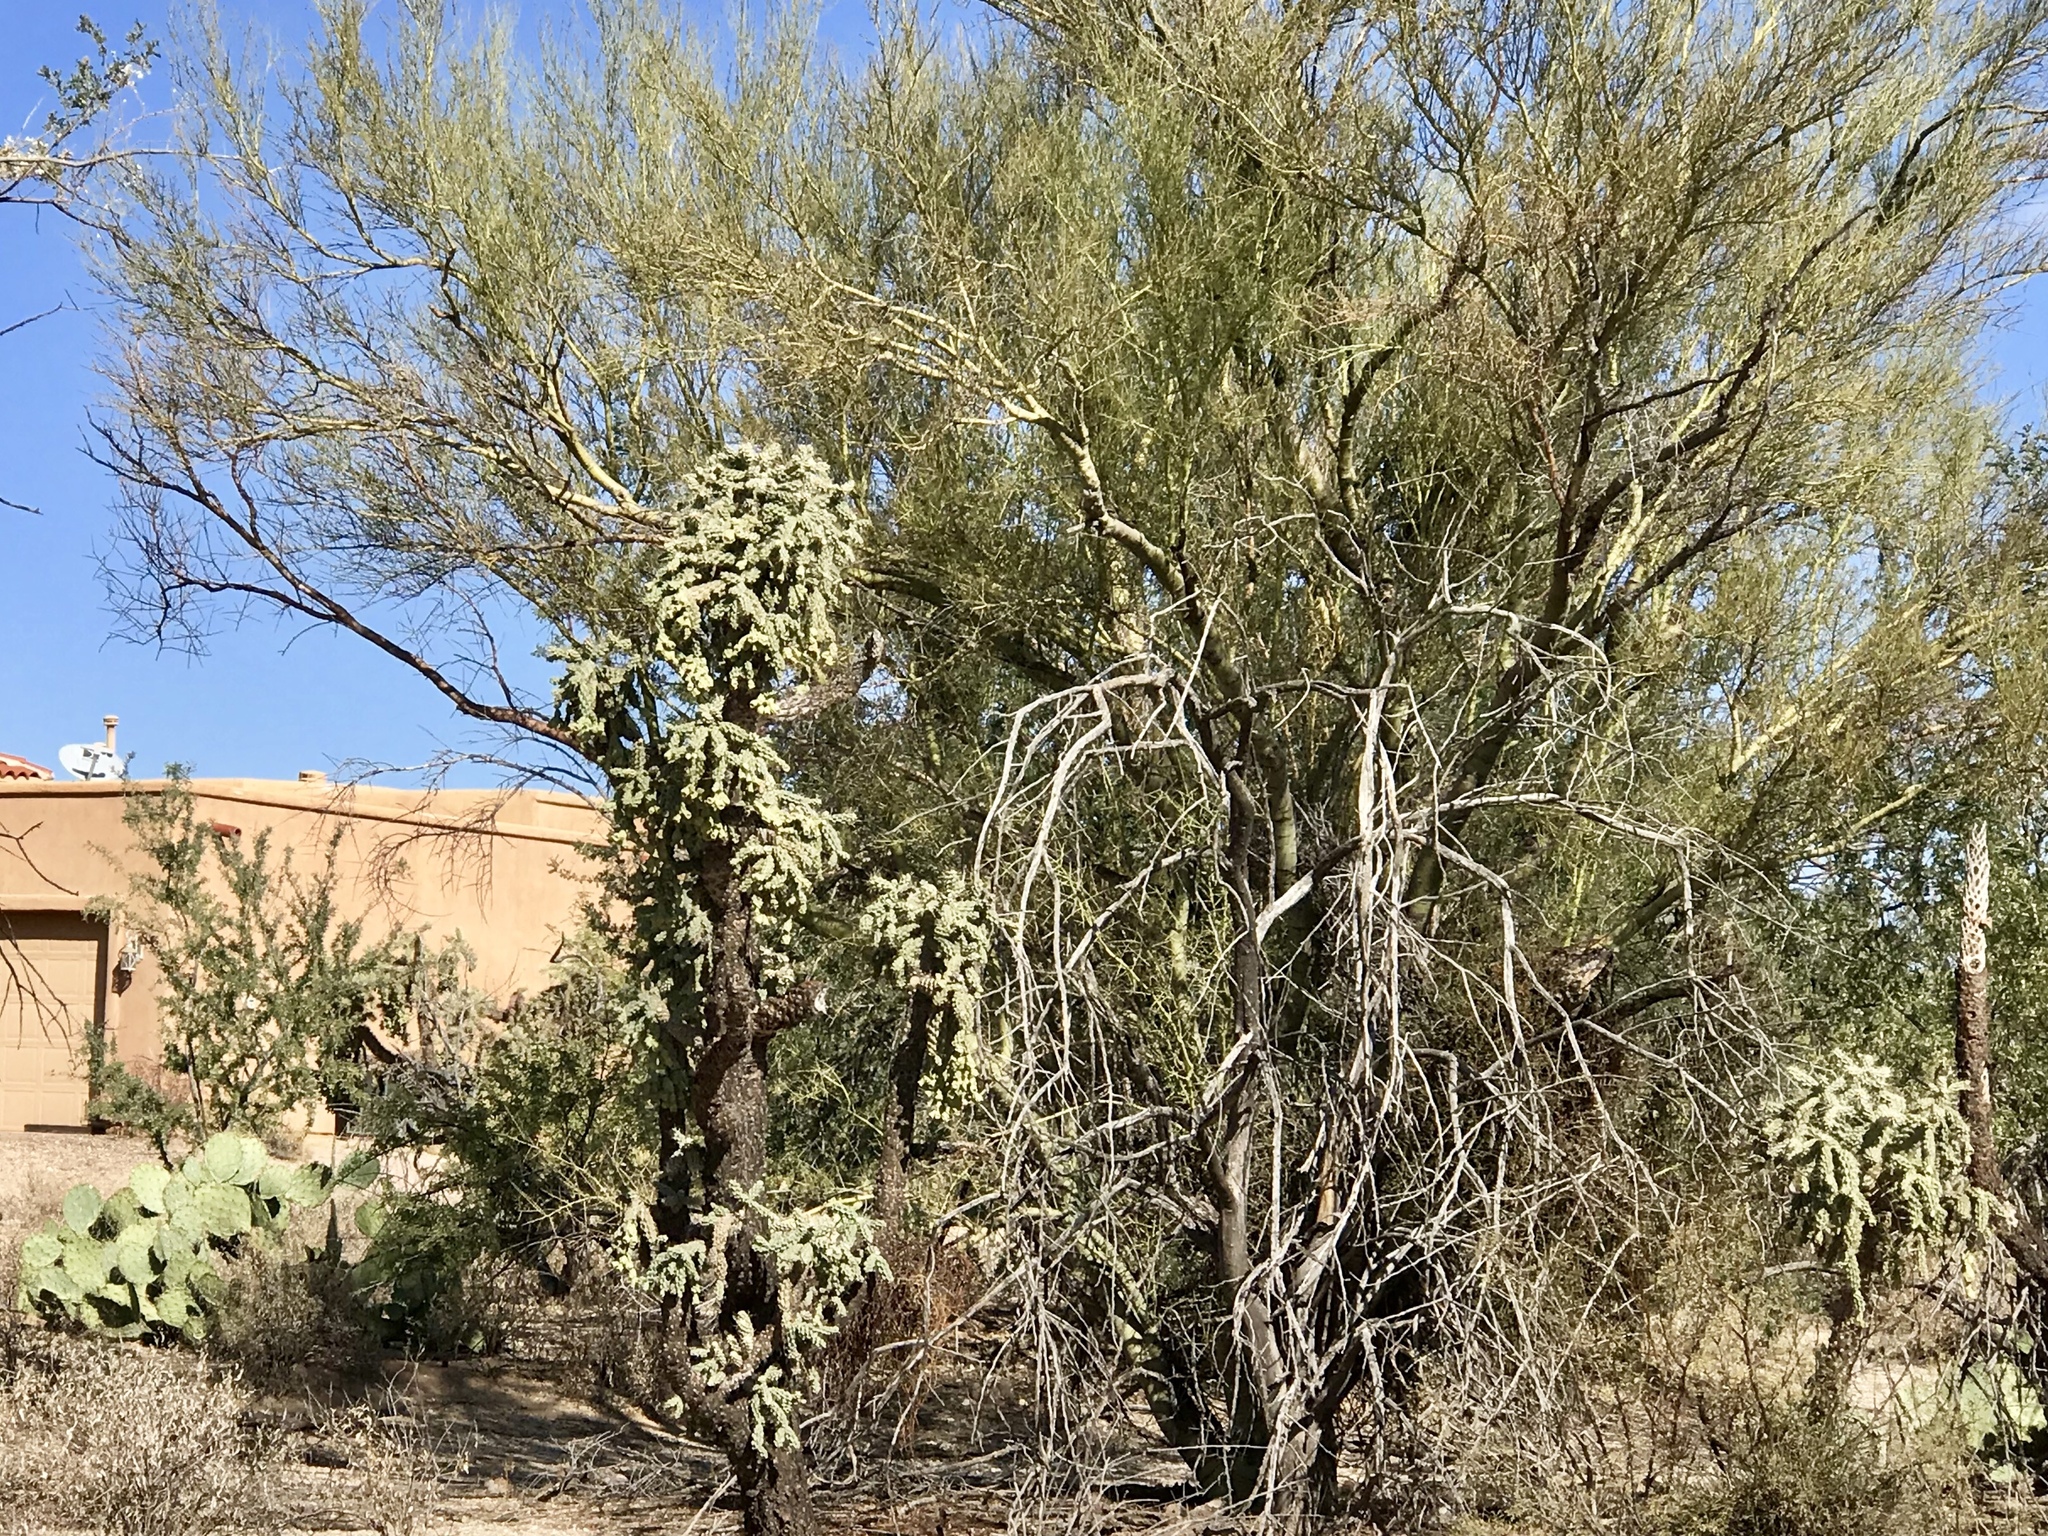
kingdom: Plantae
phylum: Tracheophyta
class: Magnoliopsida
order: Fabales
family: Fabaceae
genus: Parkinsonia
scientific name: Parkinsonia microphylla
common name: Yellow paloverde
